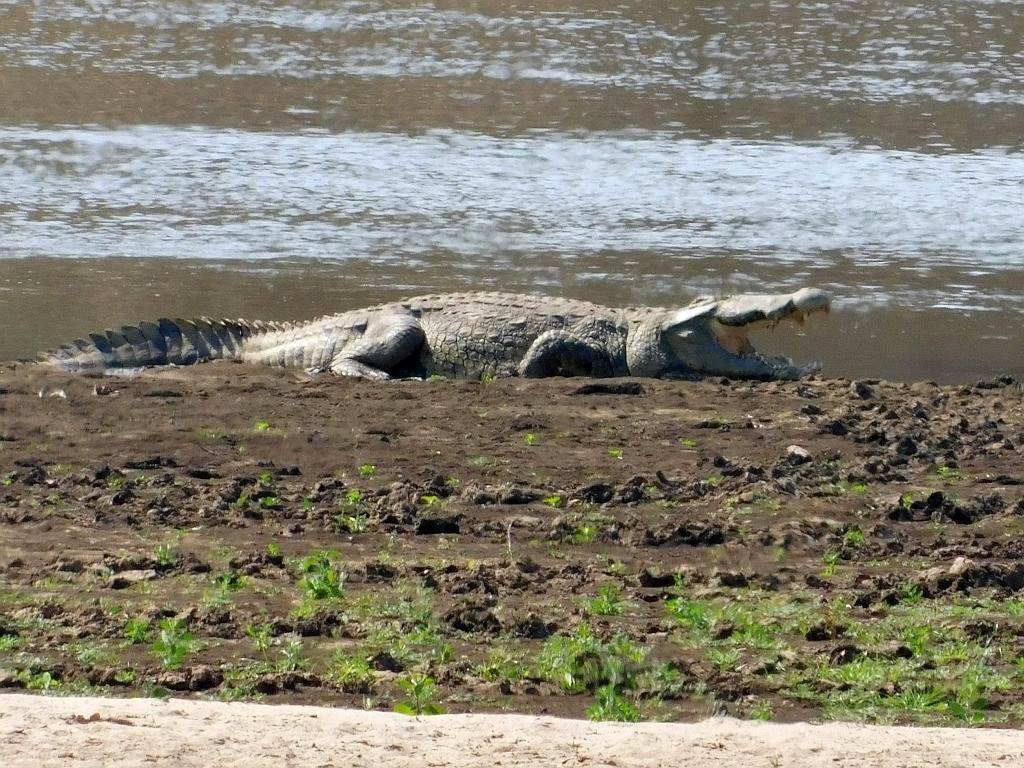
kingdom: Animalia
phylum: Chordata
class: Crocodylia
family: Crocodylidae
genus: Crocodylus
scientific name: Crocodylus niloticus
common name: Nile crocodile
